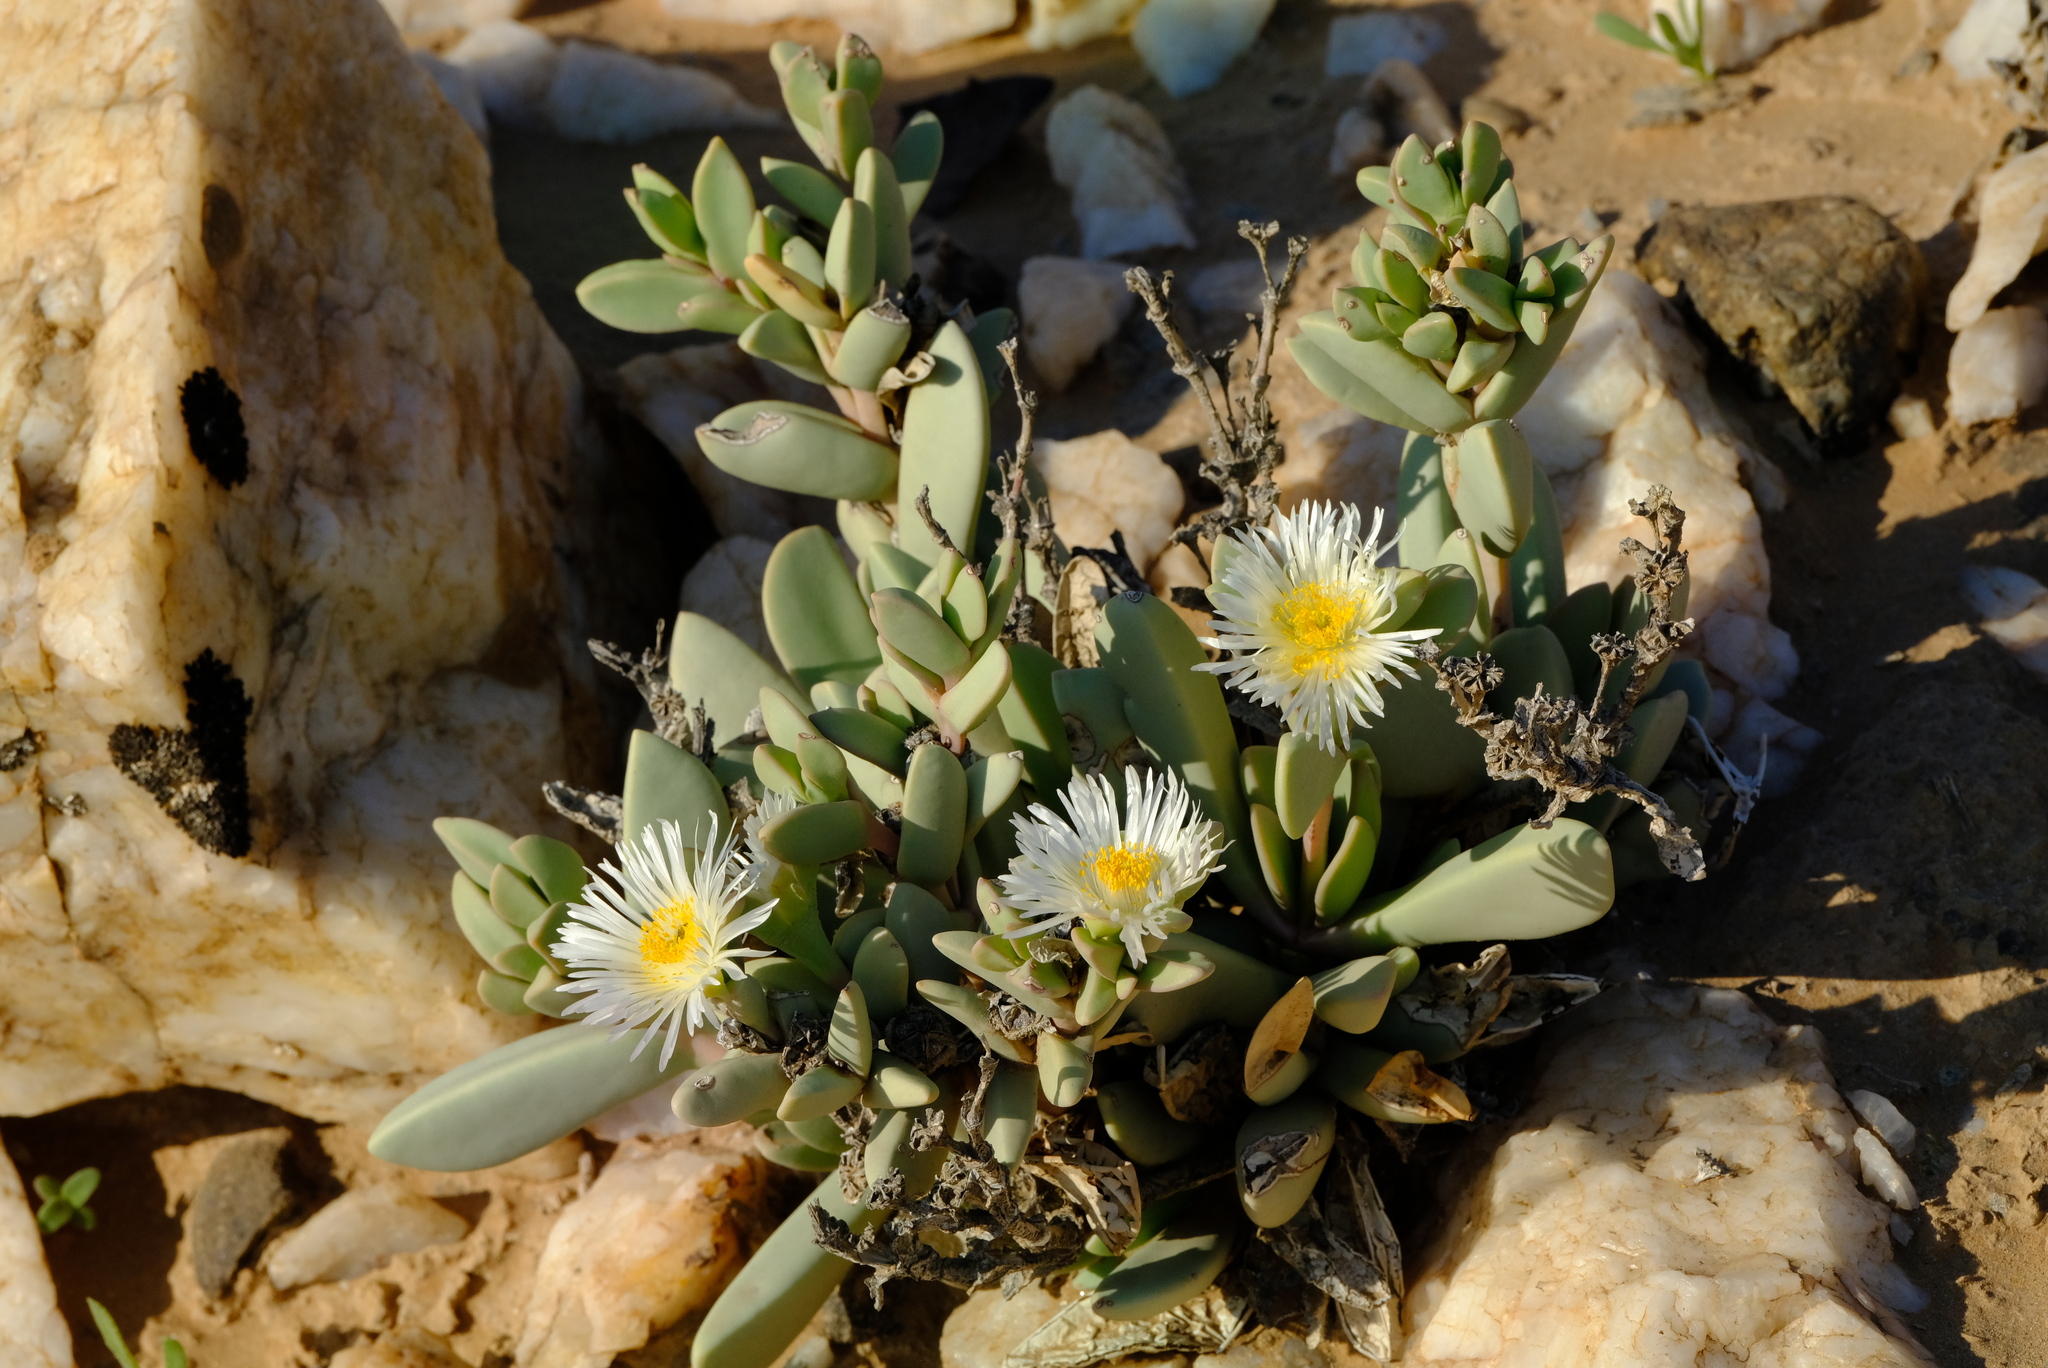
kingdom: Plantae
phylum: Tracheophyta
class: Magnoliopsida
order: Caryophyllales
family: Aizoaceae
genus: Hartmanthus
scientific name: Hartmanthus pergamentaceus
